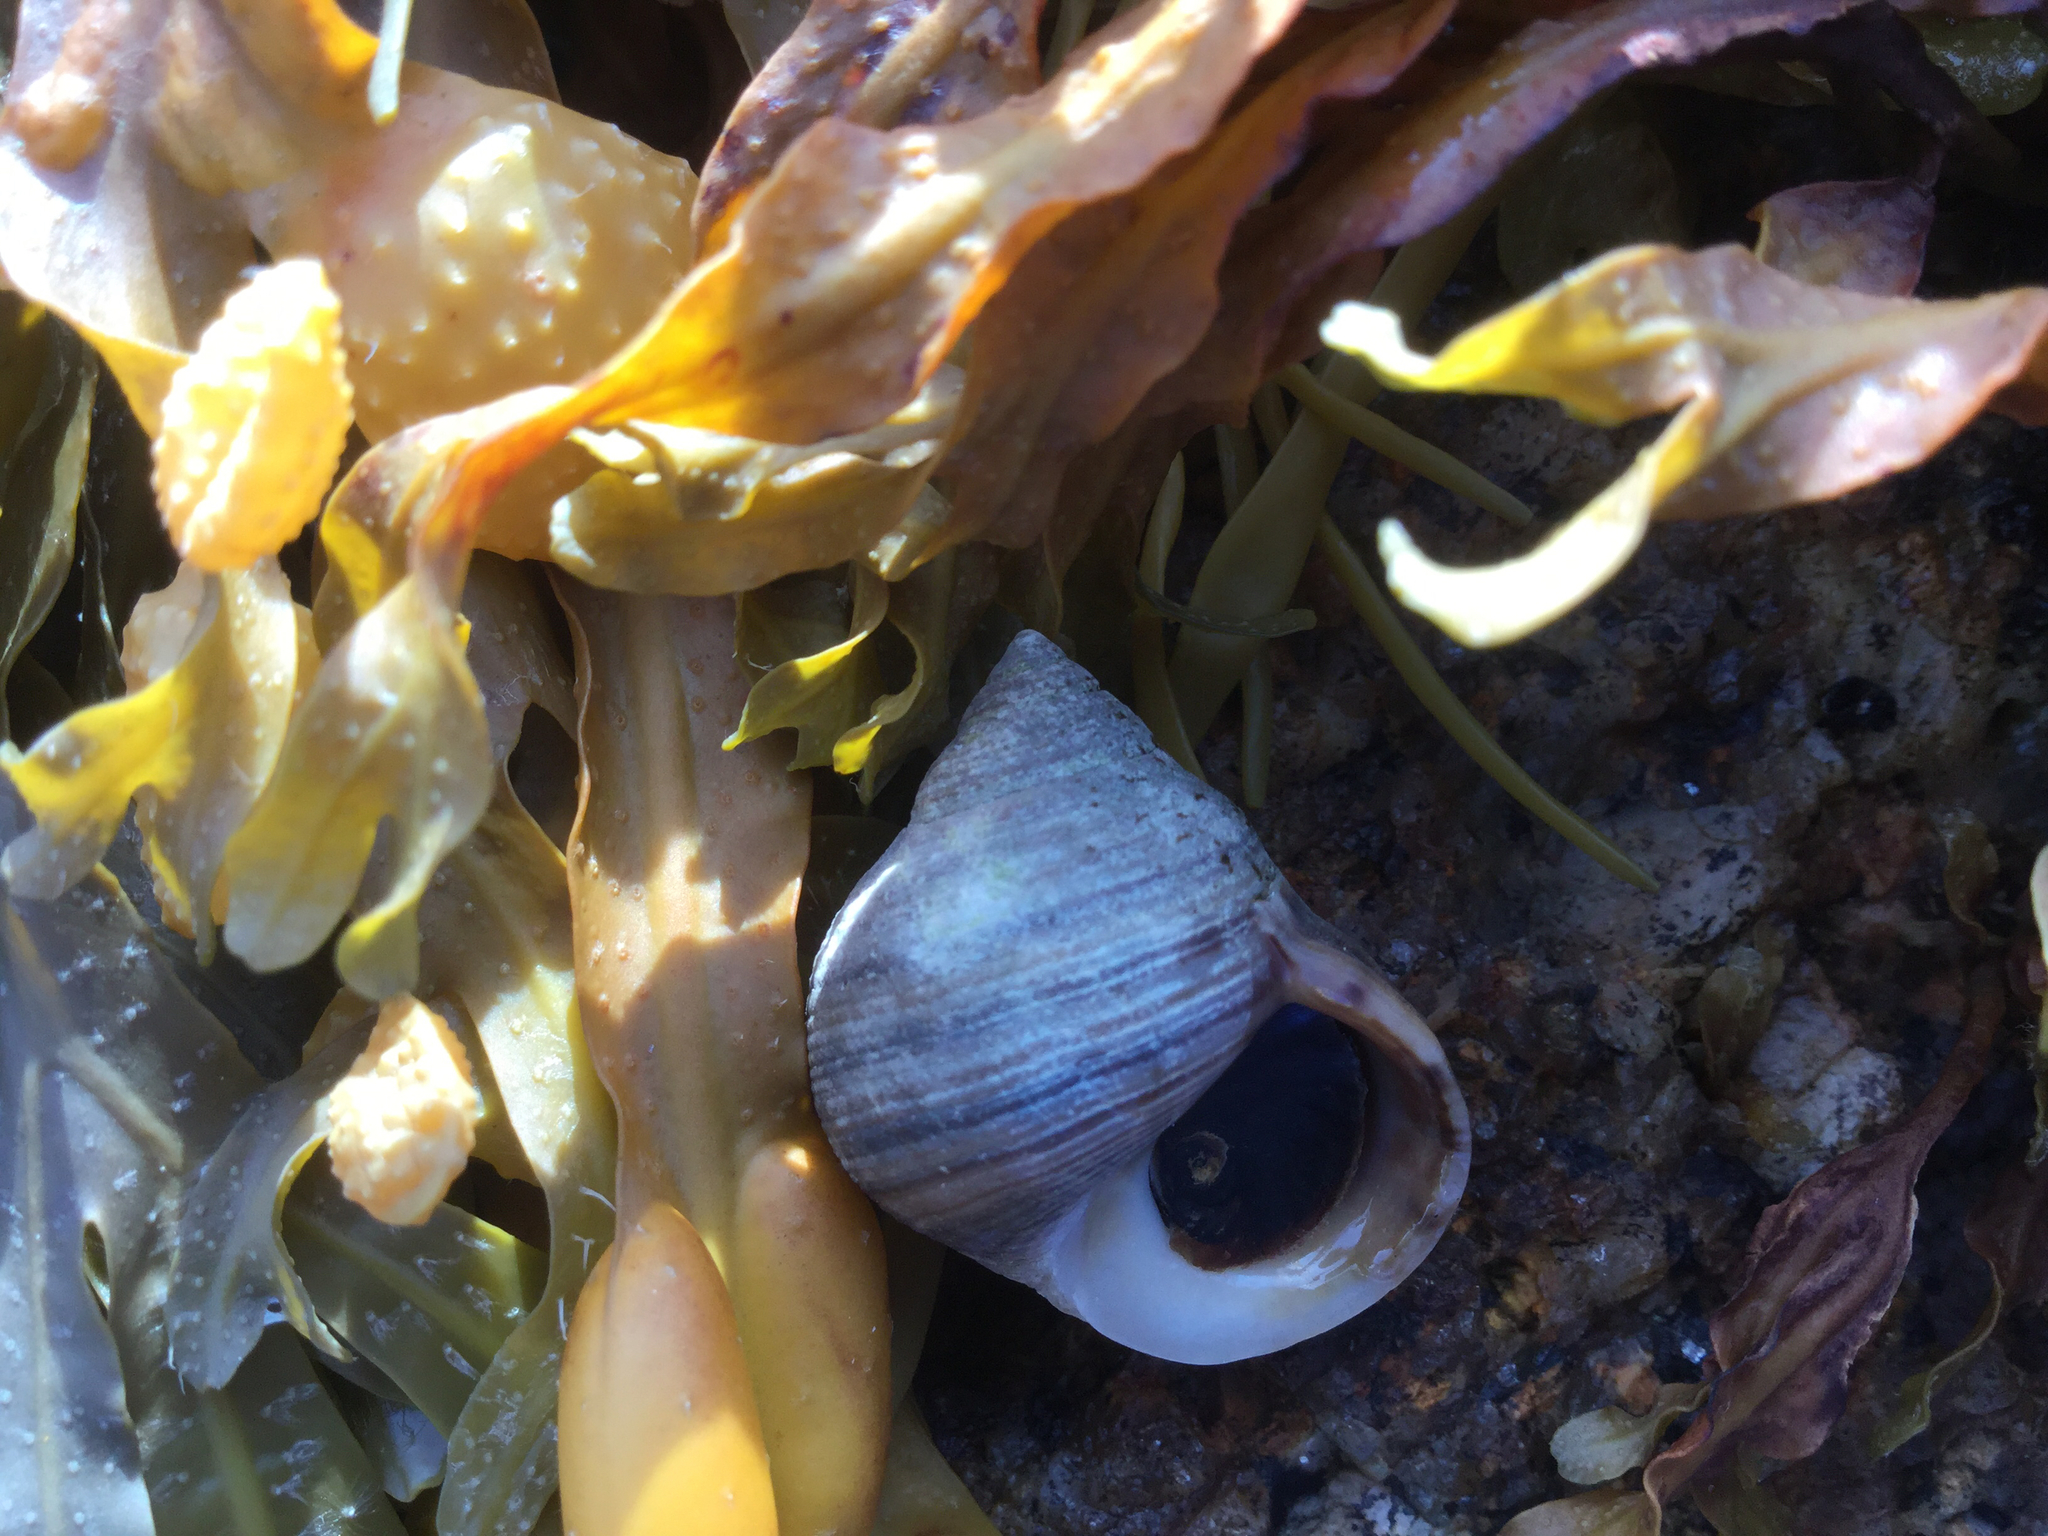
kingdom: Animalia
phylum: Mollusca
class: Gastropoda
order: Littorinimorpha
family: Littorinidae
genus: Littorina
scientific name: Littorina littorea
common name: Common periwinkle
